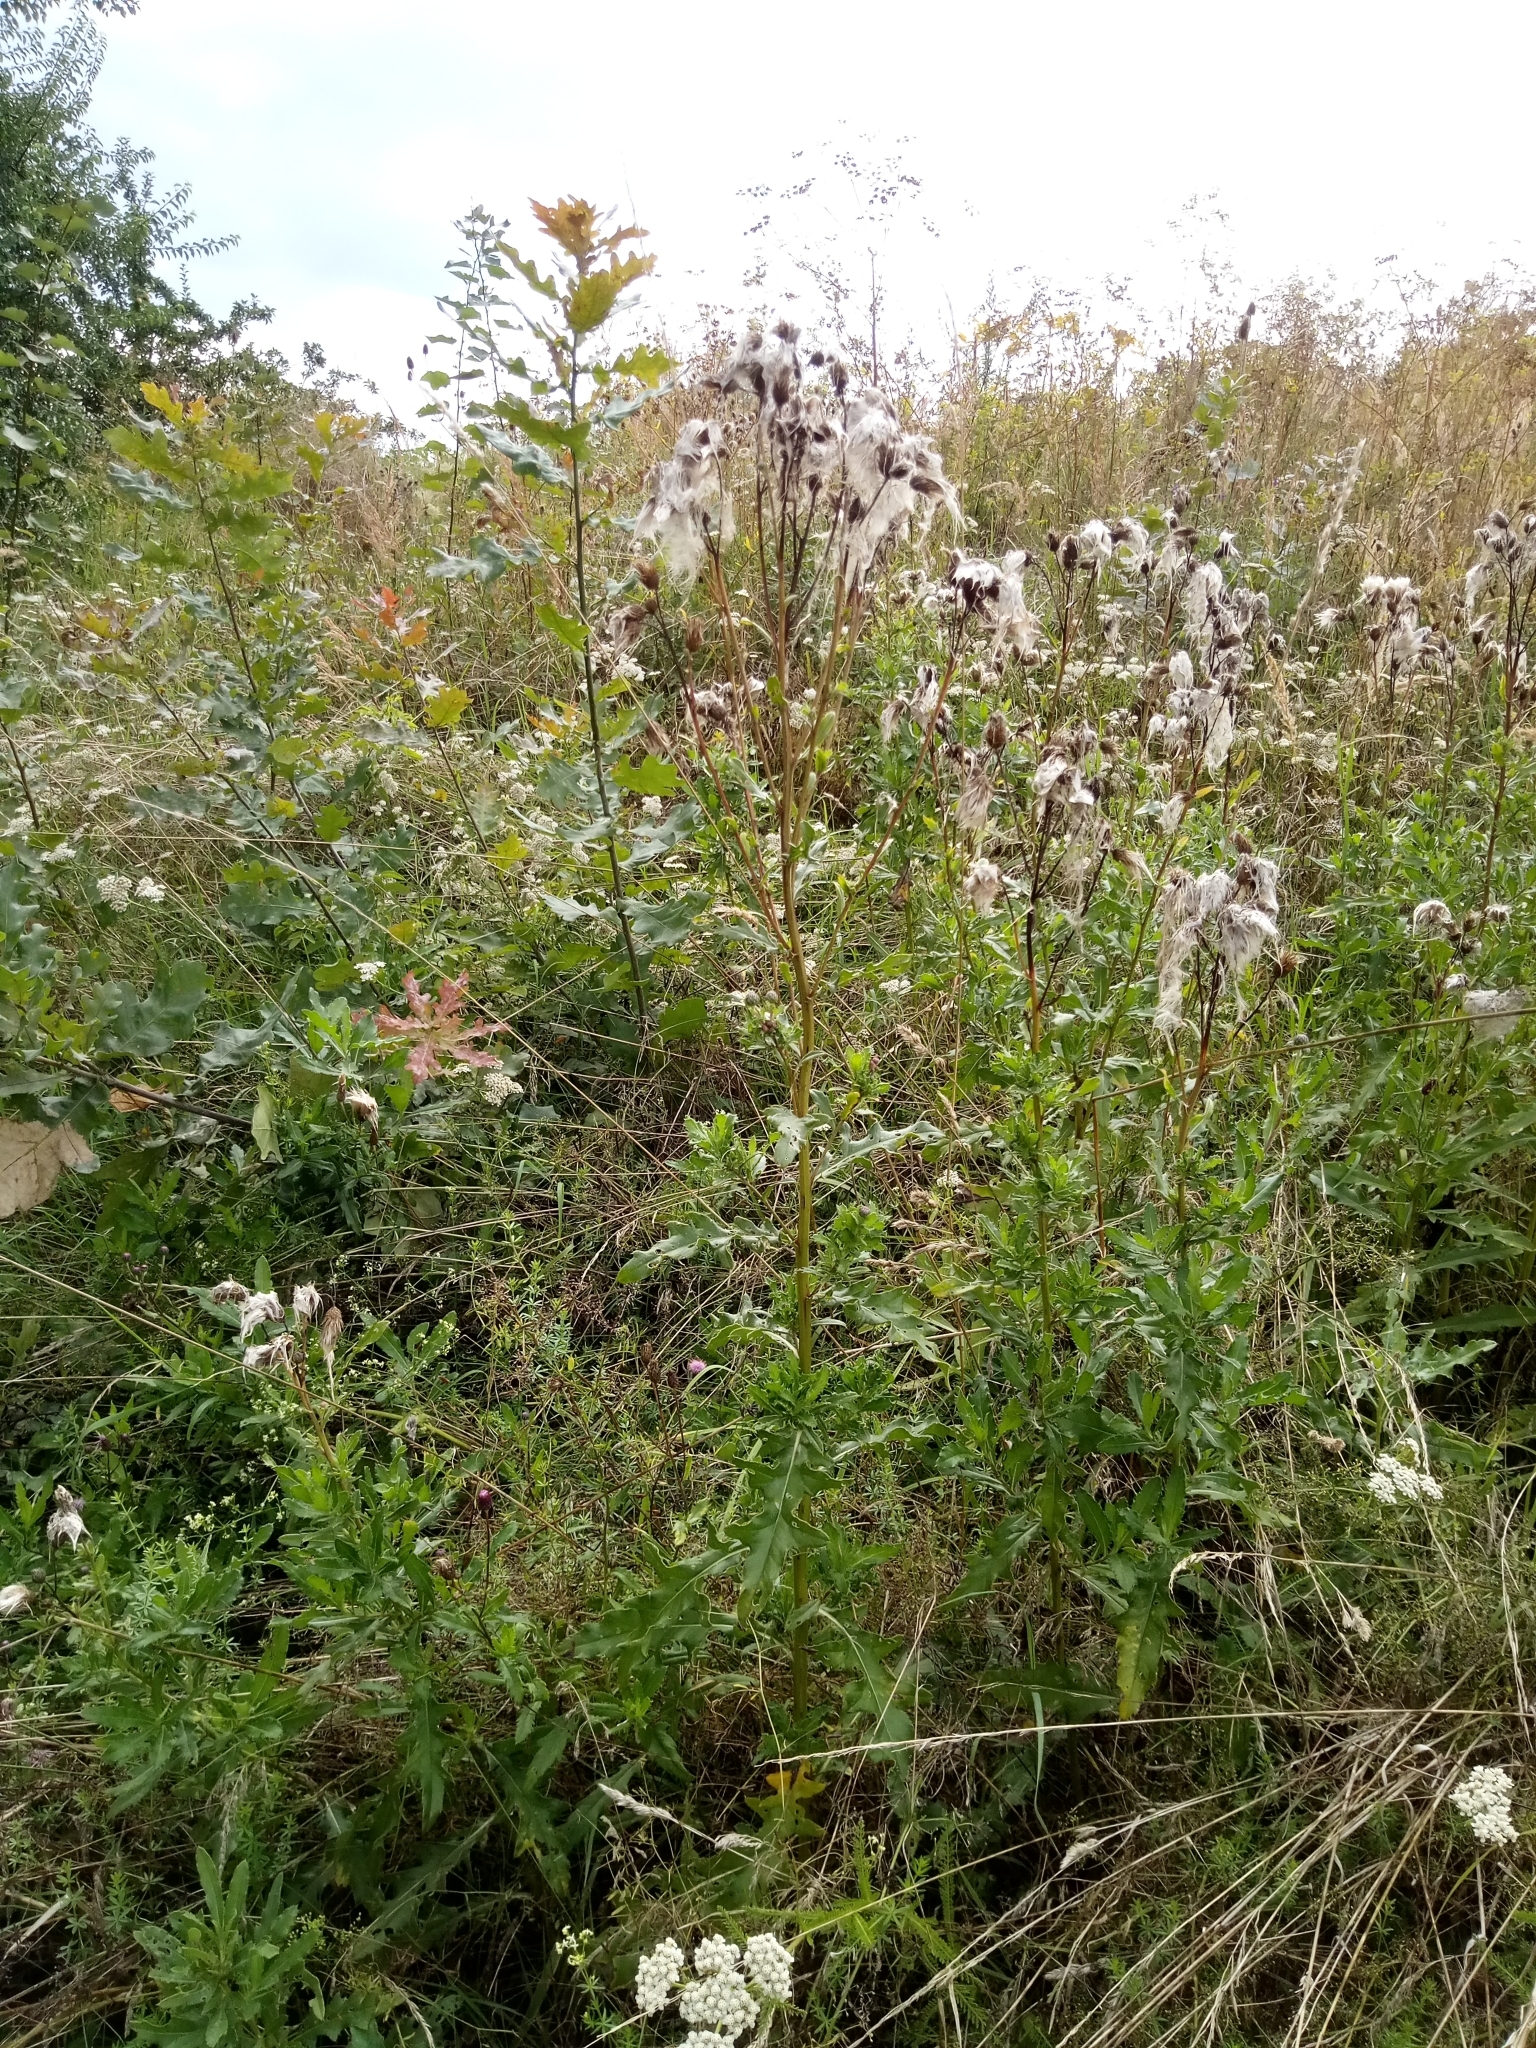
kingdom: Plantae
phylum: Tracheophyta
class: Magnoliopsida
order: Asterales
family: Asteraceae
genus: Cirsium
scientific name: Cirsium arvense
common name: Creeping thistle
